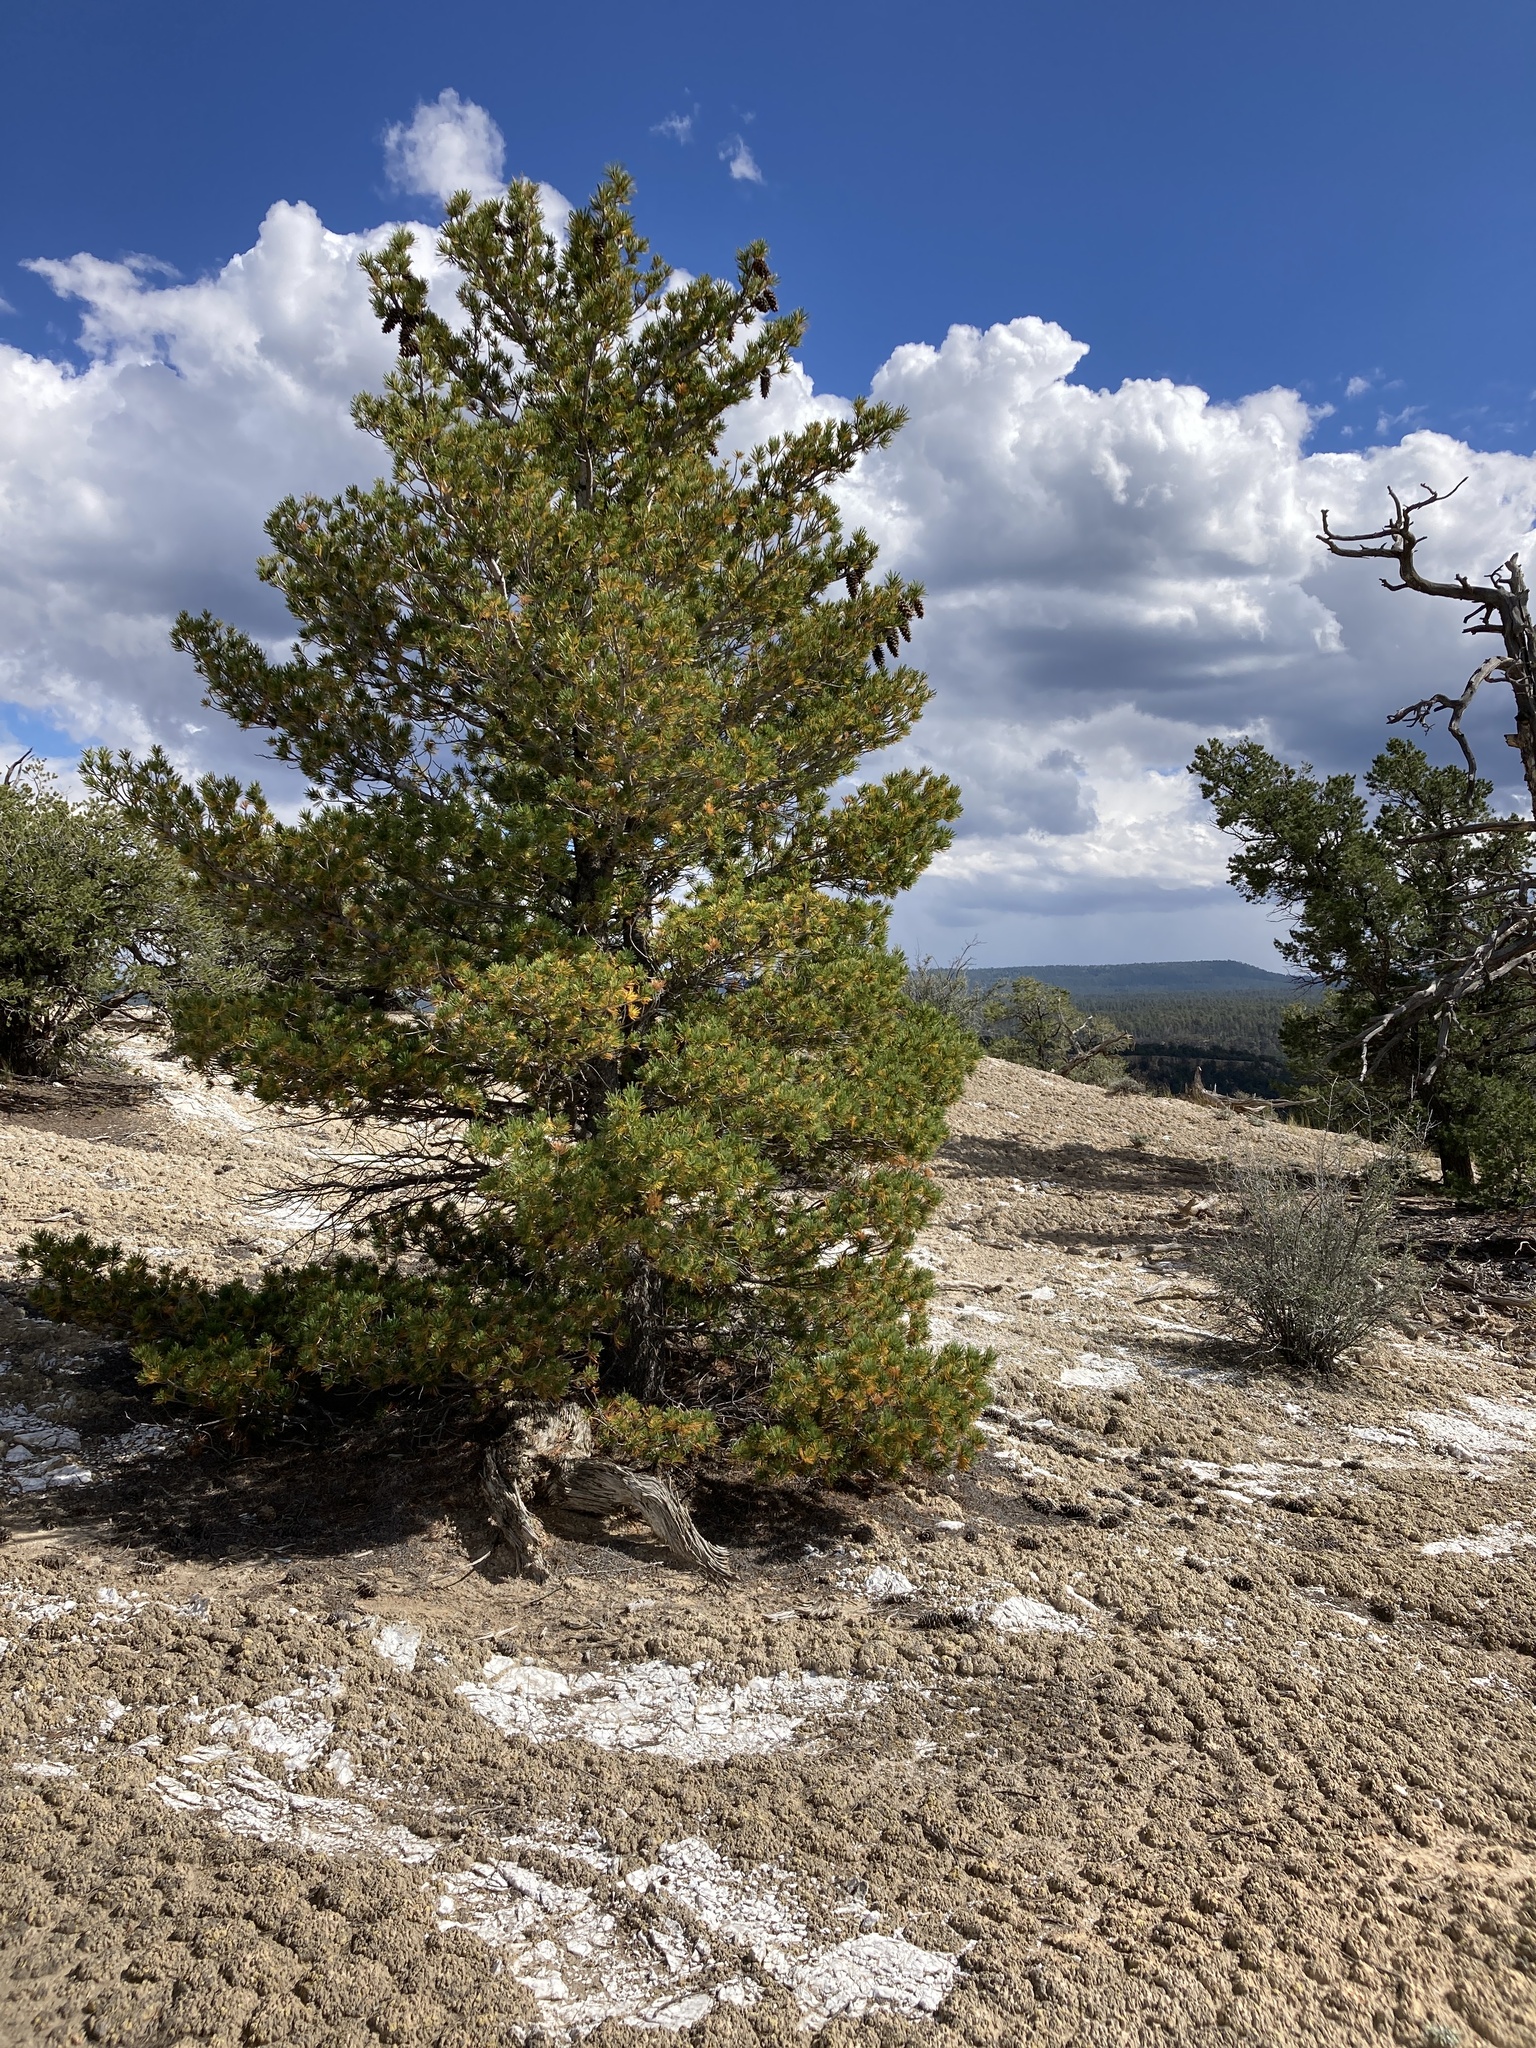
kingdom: Plantae
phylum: Tracheophyta
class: Pinopsida
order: Pinales
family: Pinaceae
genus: Pinus
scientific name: Pinus flexilis
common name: Limber pine
